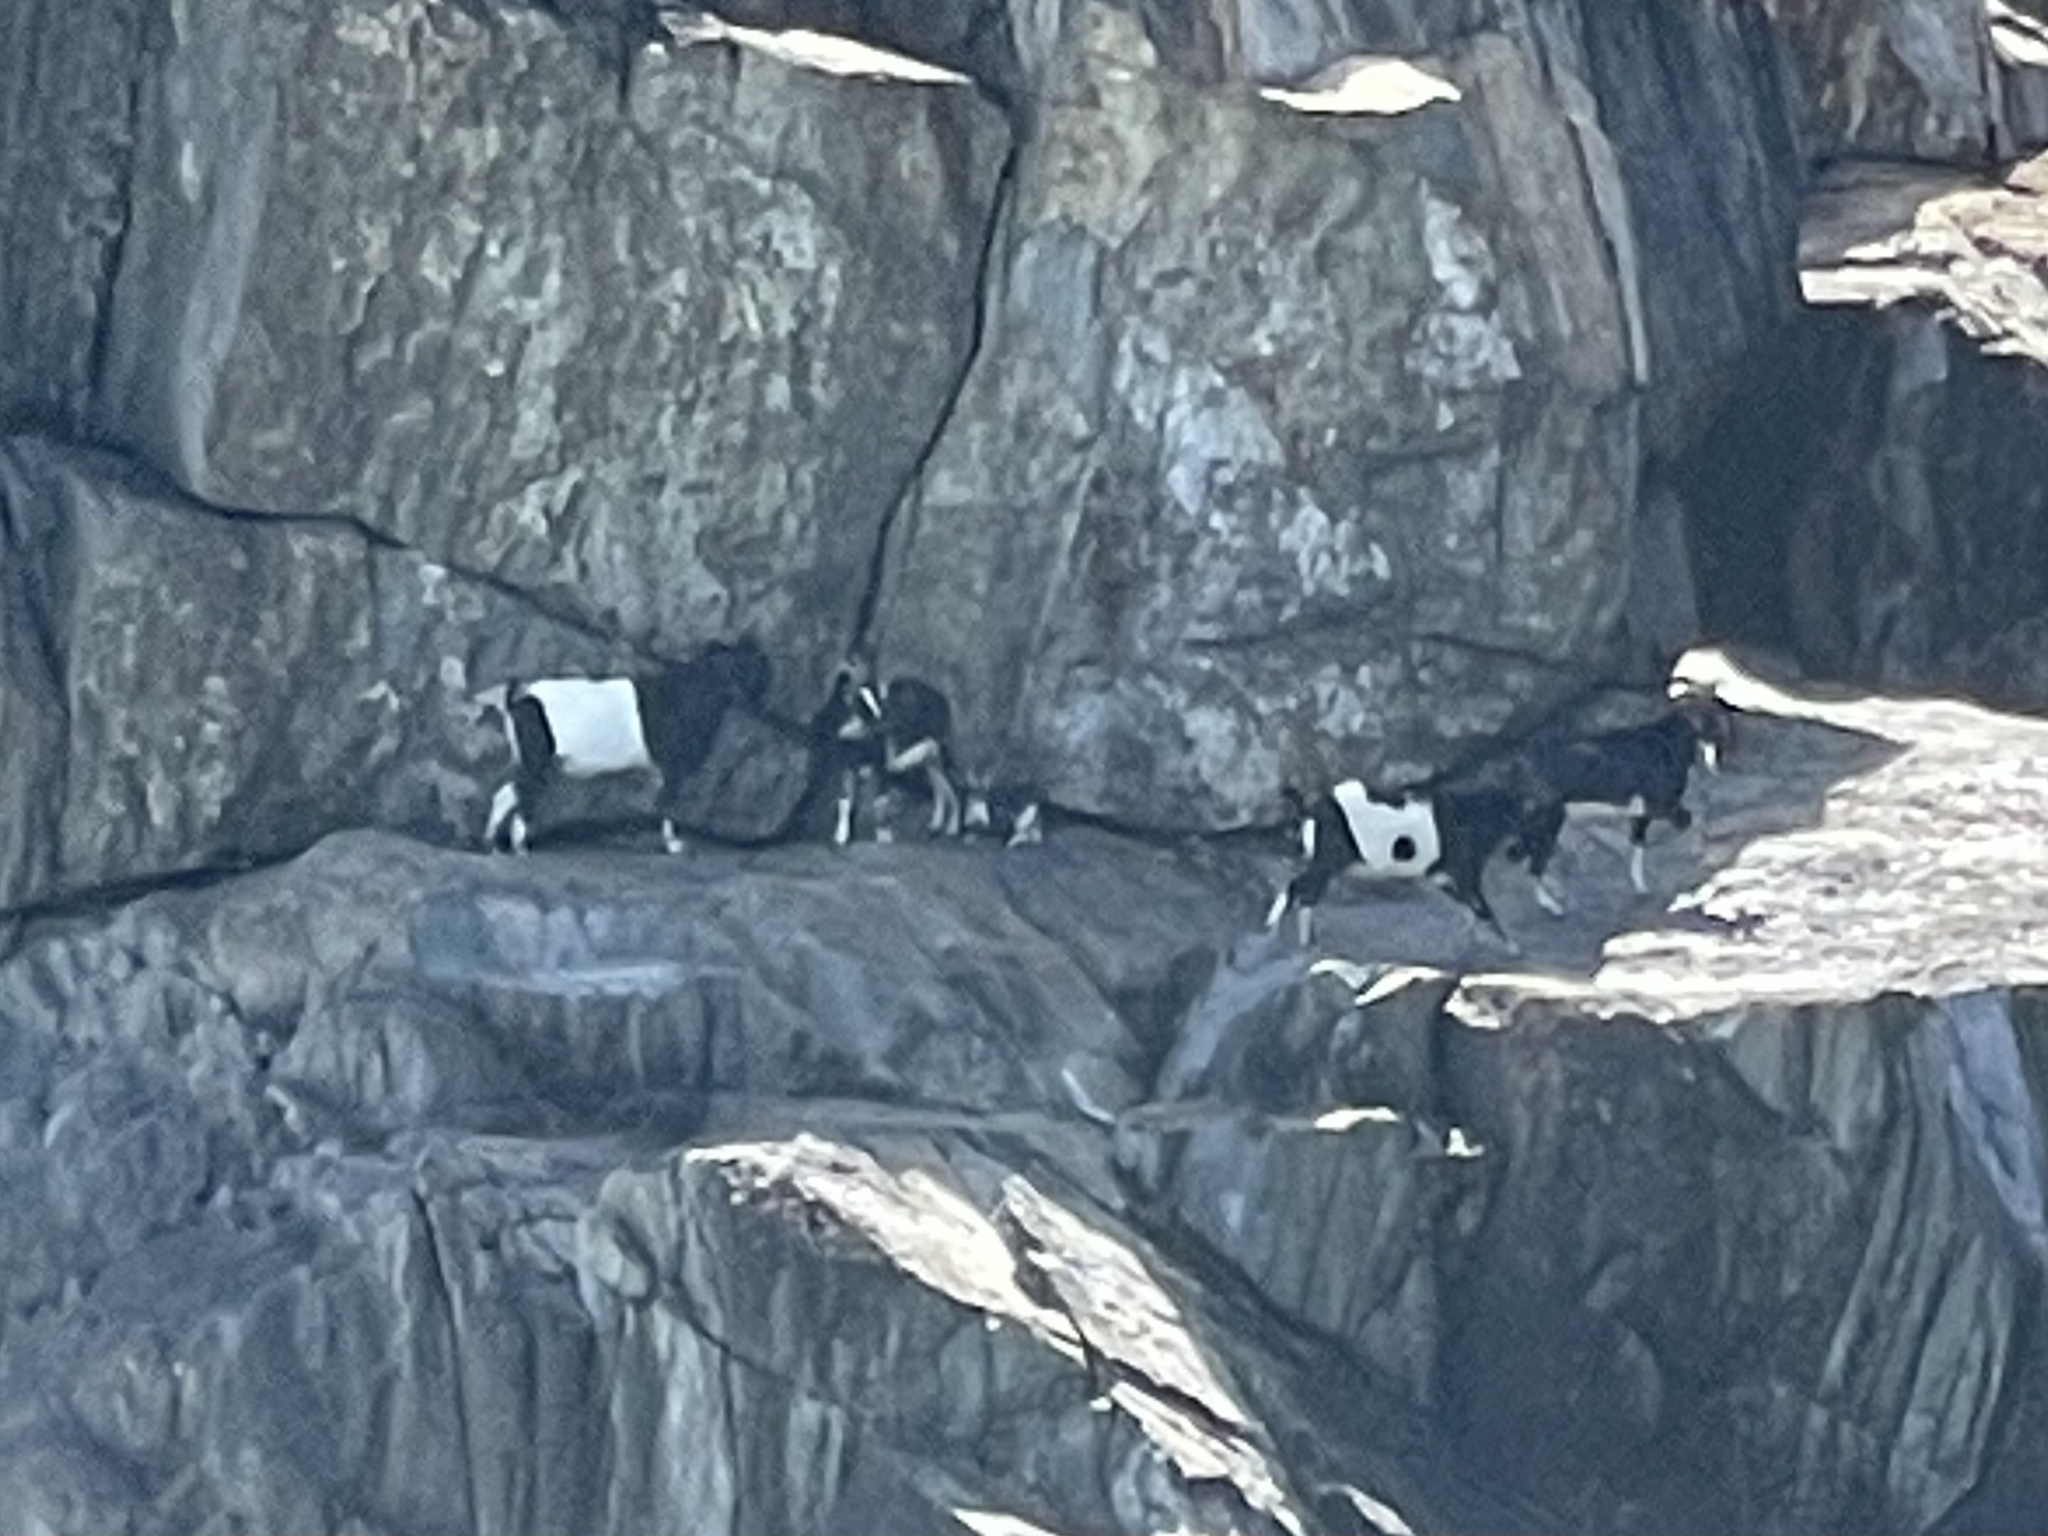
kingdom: Animalia
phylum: Chordata
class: Mammalia
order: Artiodactyla
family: Bovidae
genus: Capra
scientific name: Capra hircus
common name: Domestic goat
